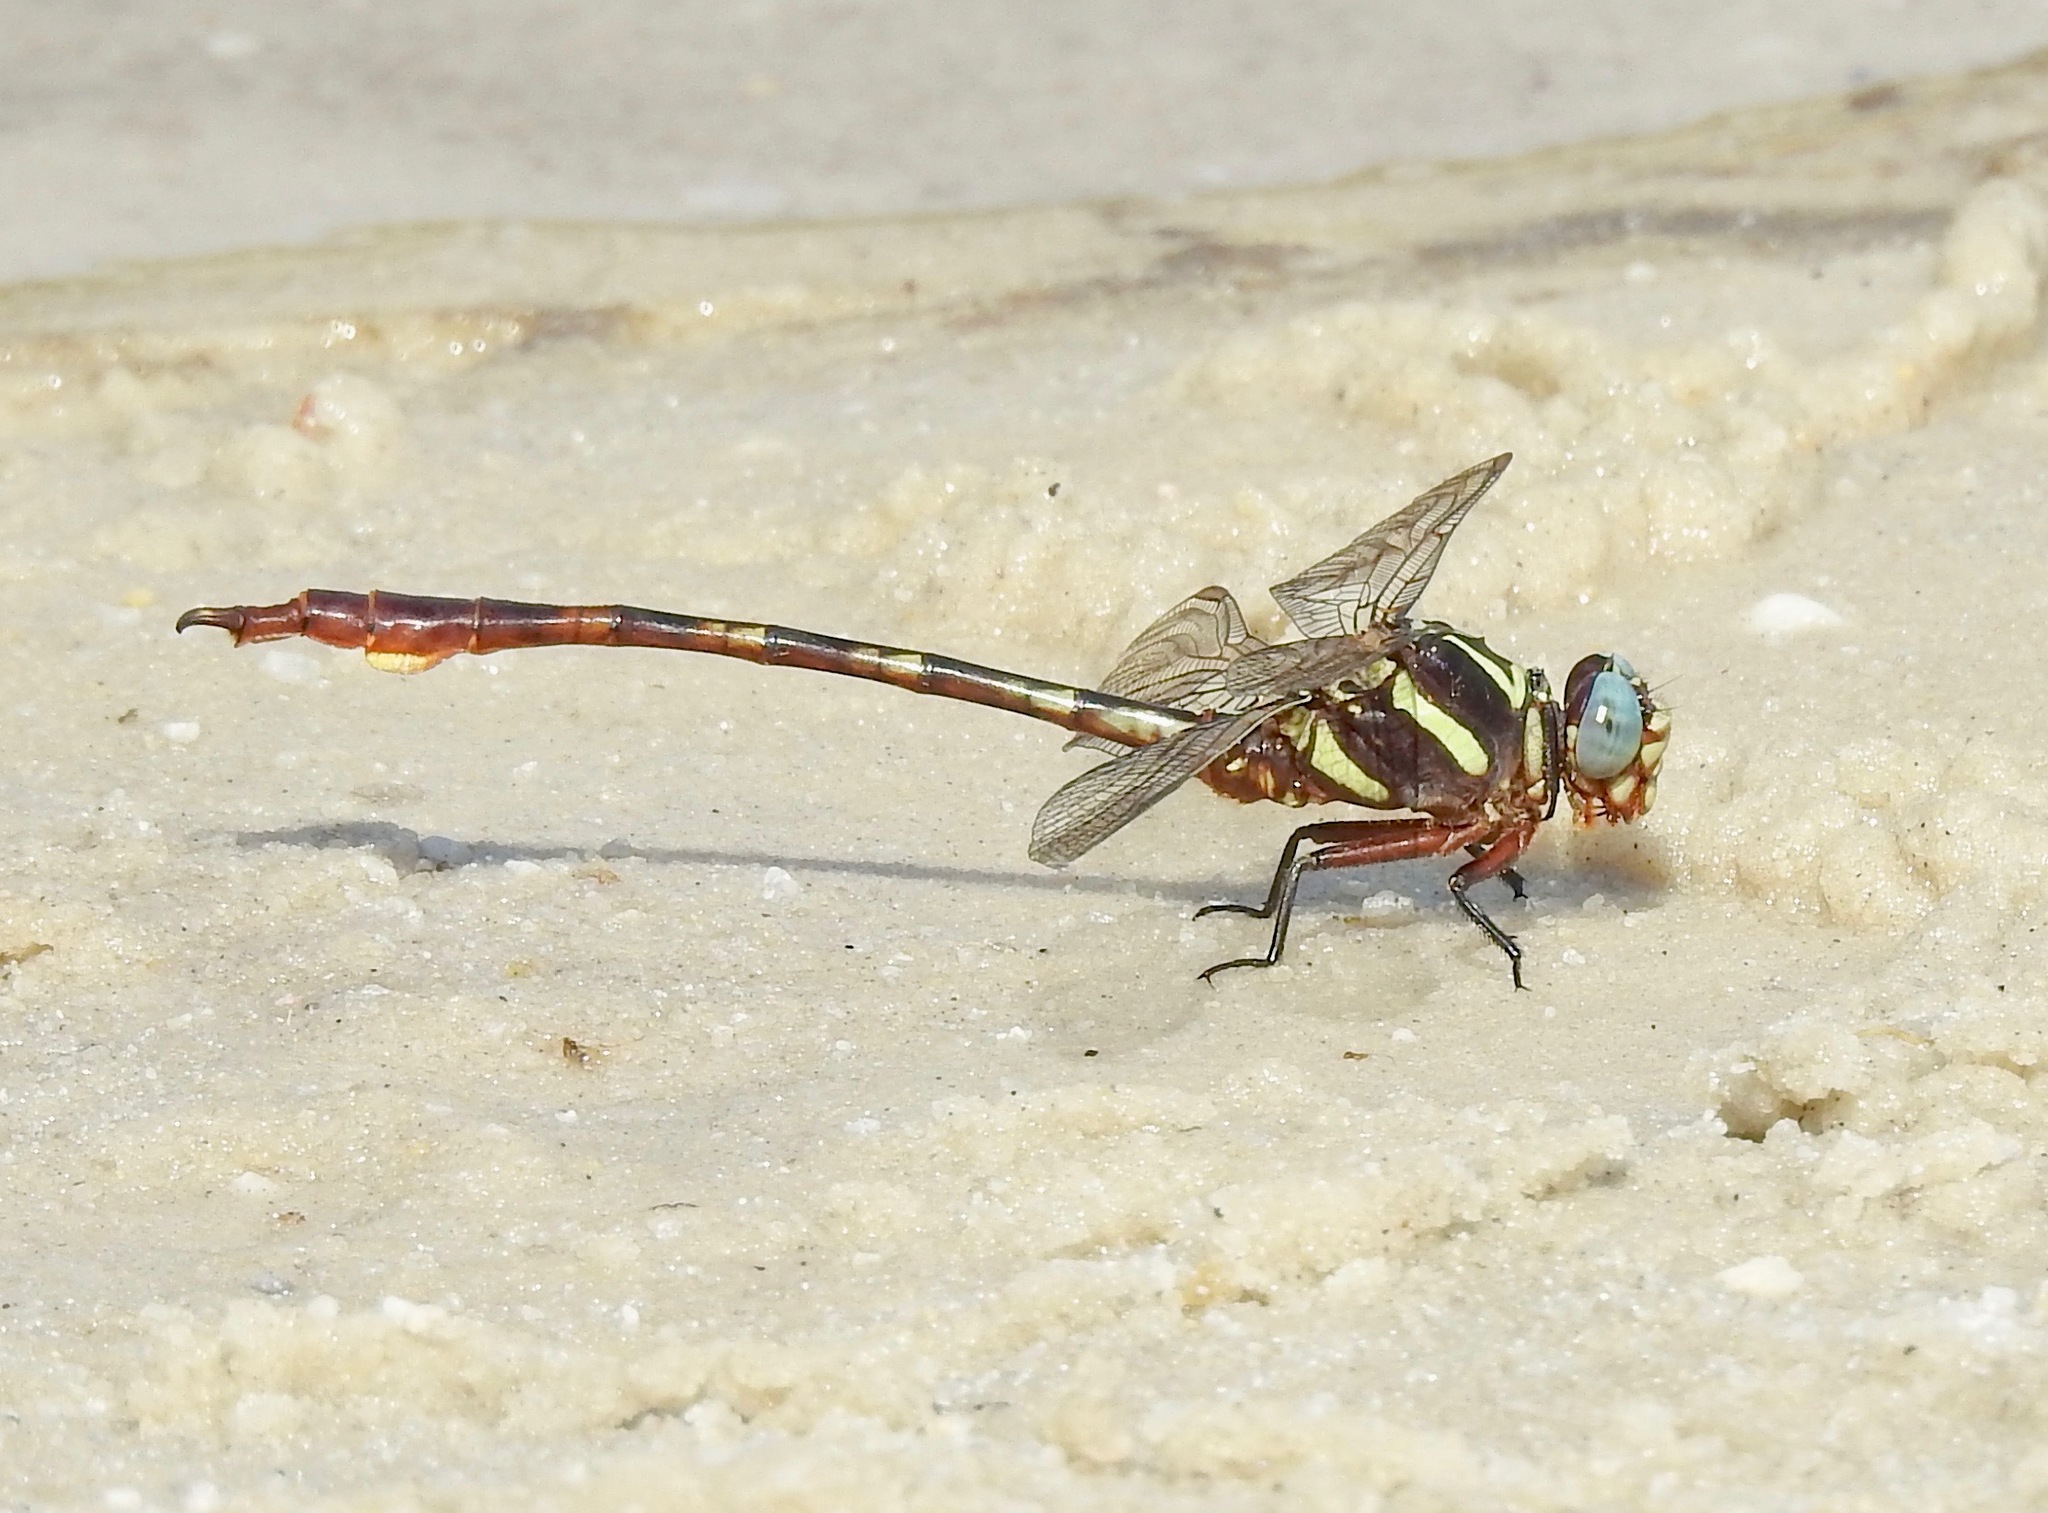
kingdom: Animalia
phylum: Arthropoda
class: Insecta
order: Odonata
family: Gomphidae
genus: Aphylla
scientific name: Aphylla williamsoni
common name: Two-striped forceptail
